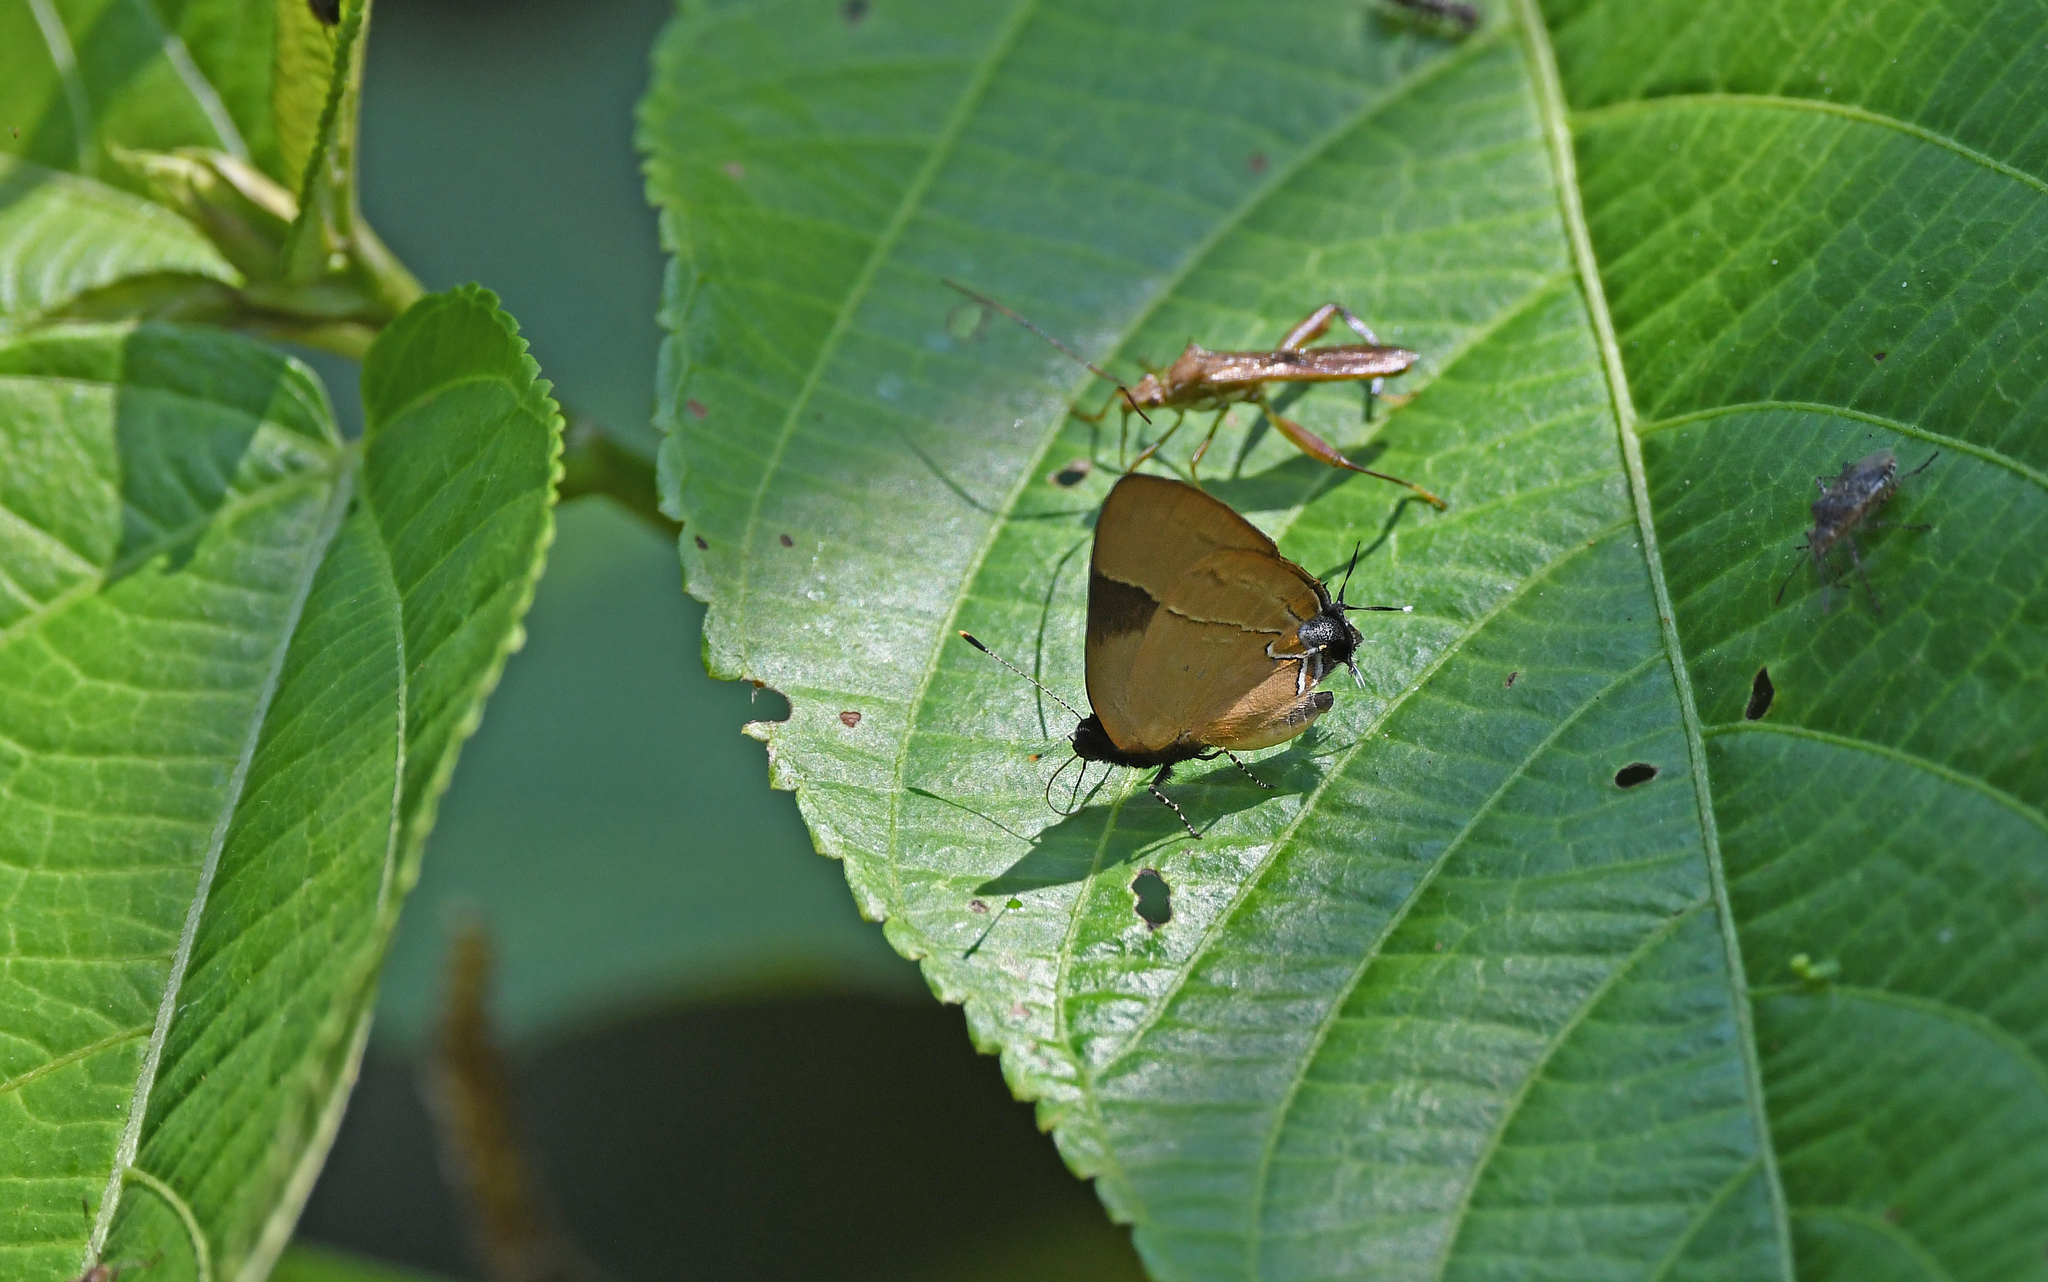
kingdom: Animalia
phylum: Arthropoda
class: Insecta
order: Lepidoptera
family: Lycaenidae
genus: Calycopis
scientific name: Calycopis calus
